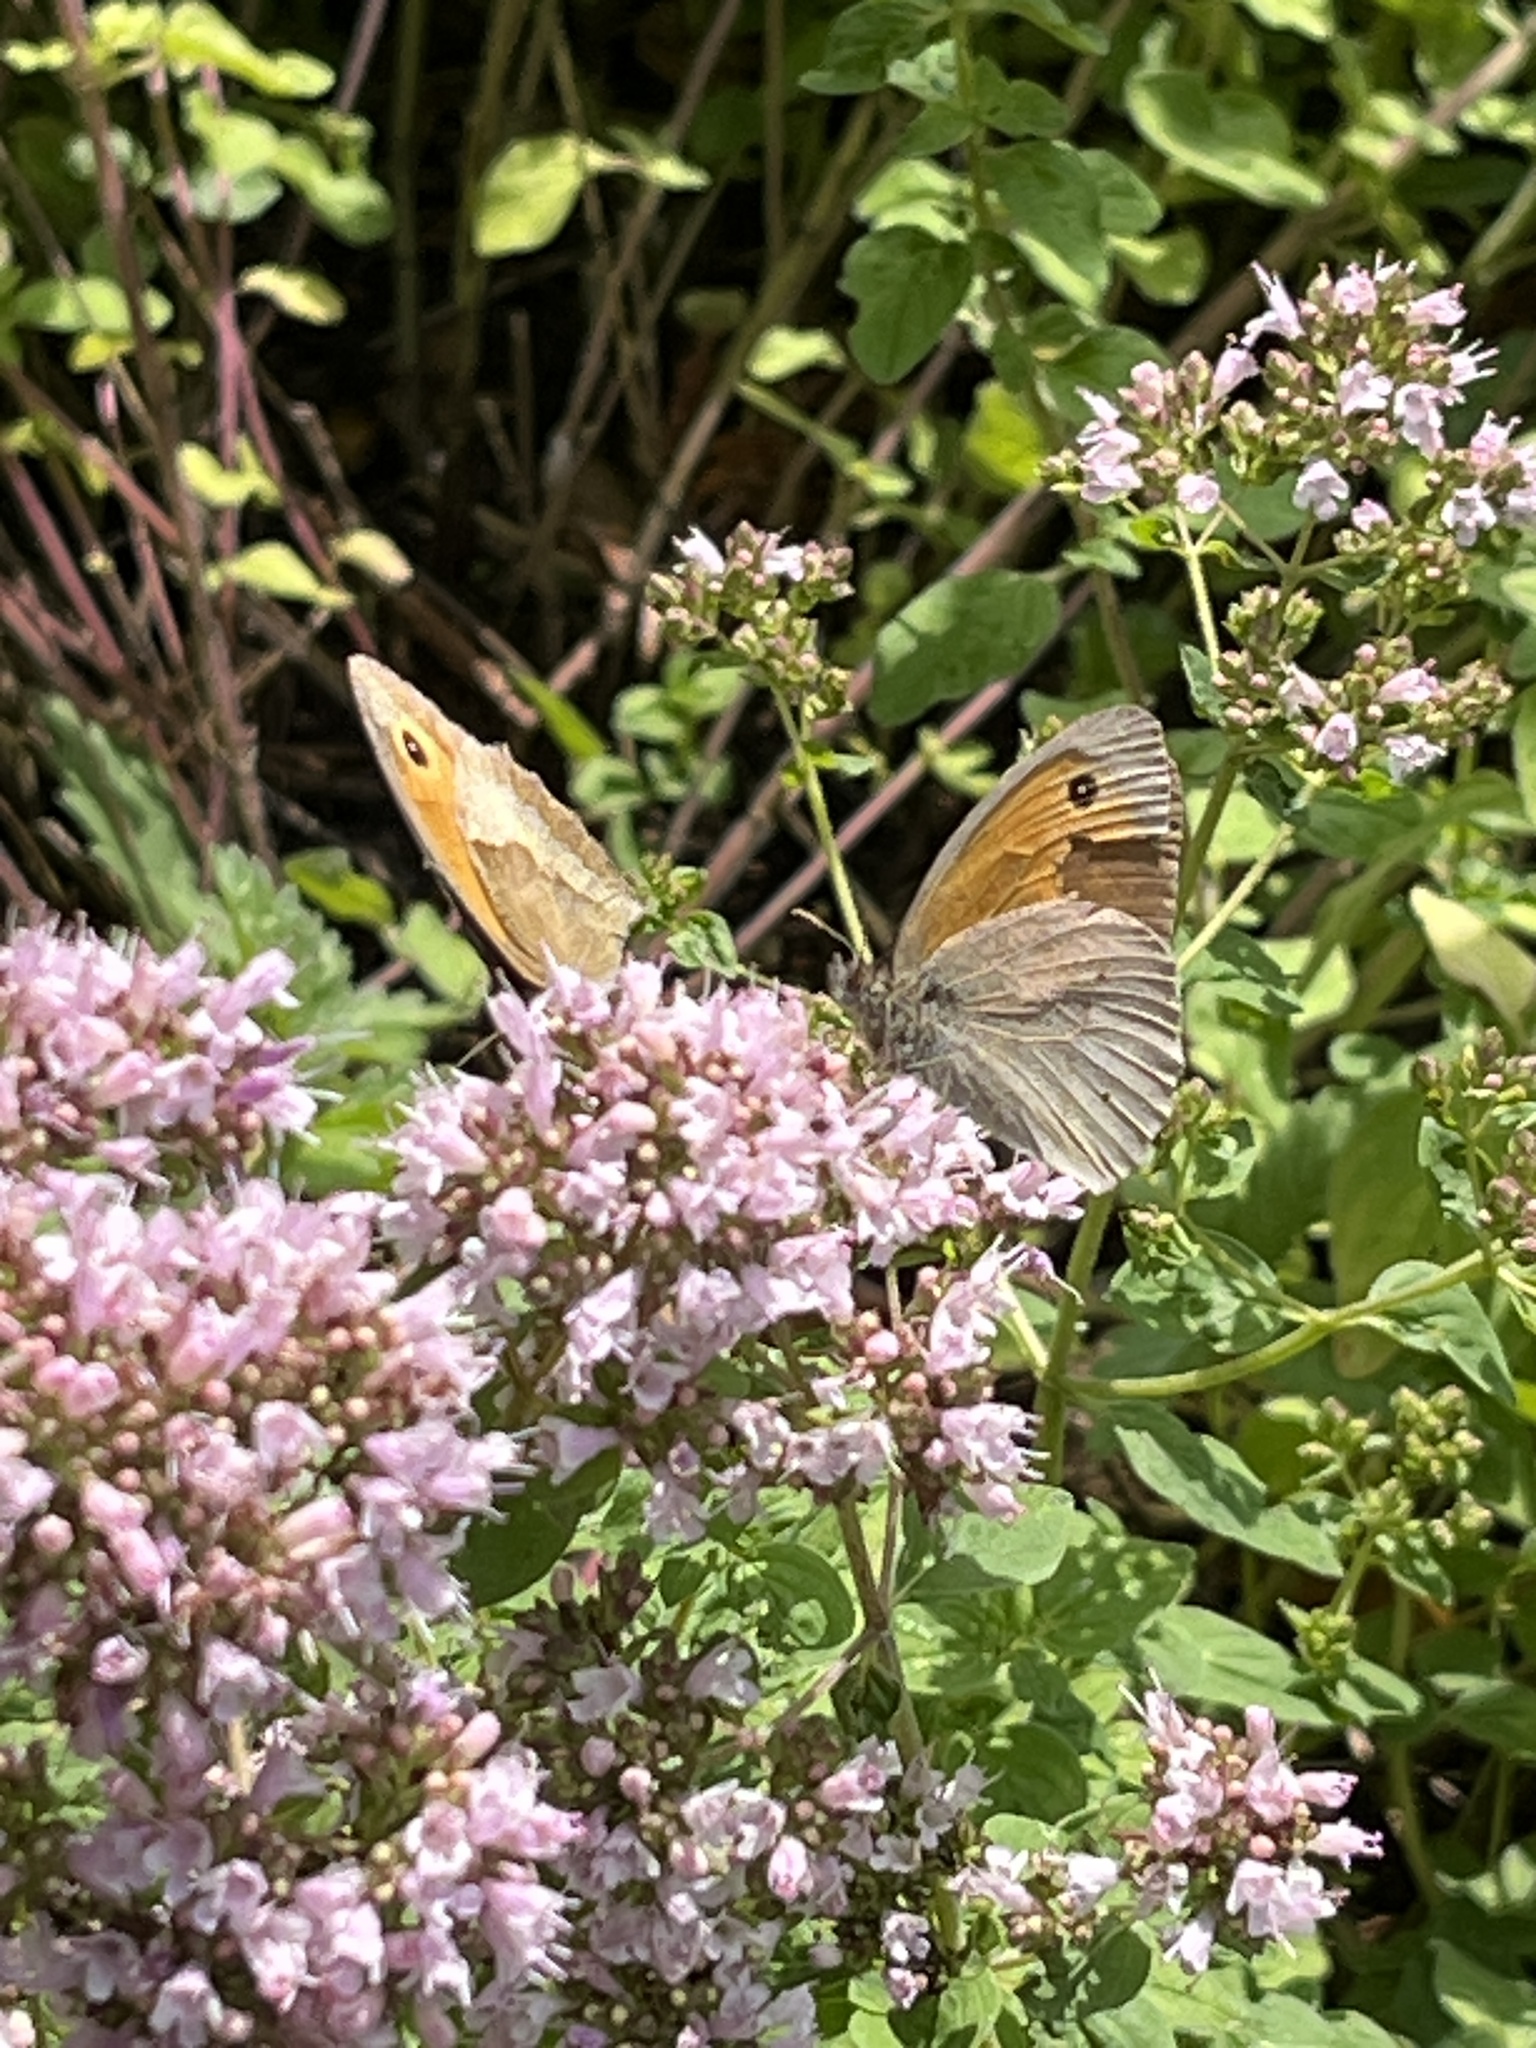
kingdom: Animalia
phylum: Arthropoda
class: Insecta
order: Lepidoptera
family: Nymphalidae
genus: Maniola
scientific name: Maniola jurtina
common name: Meadow brown
